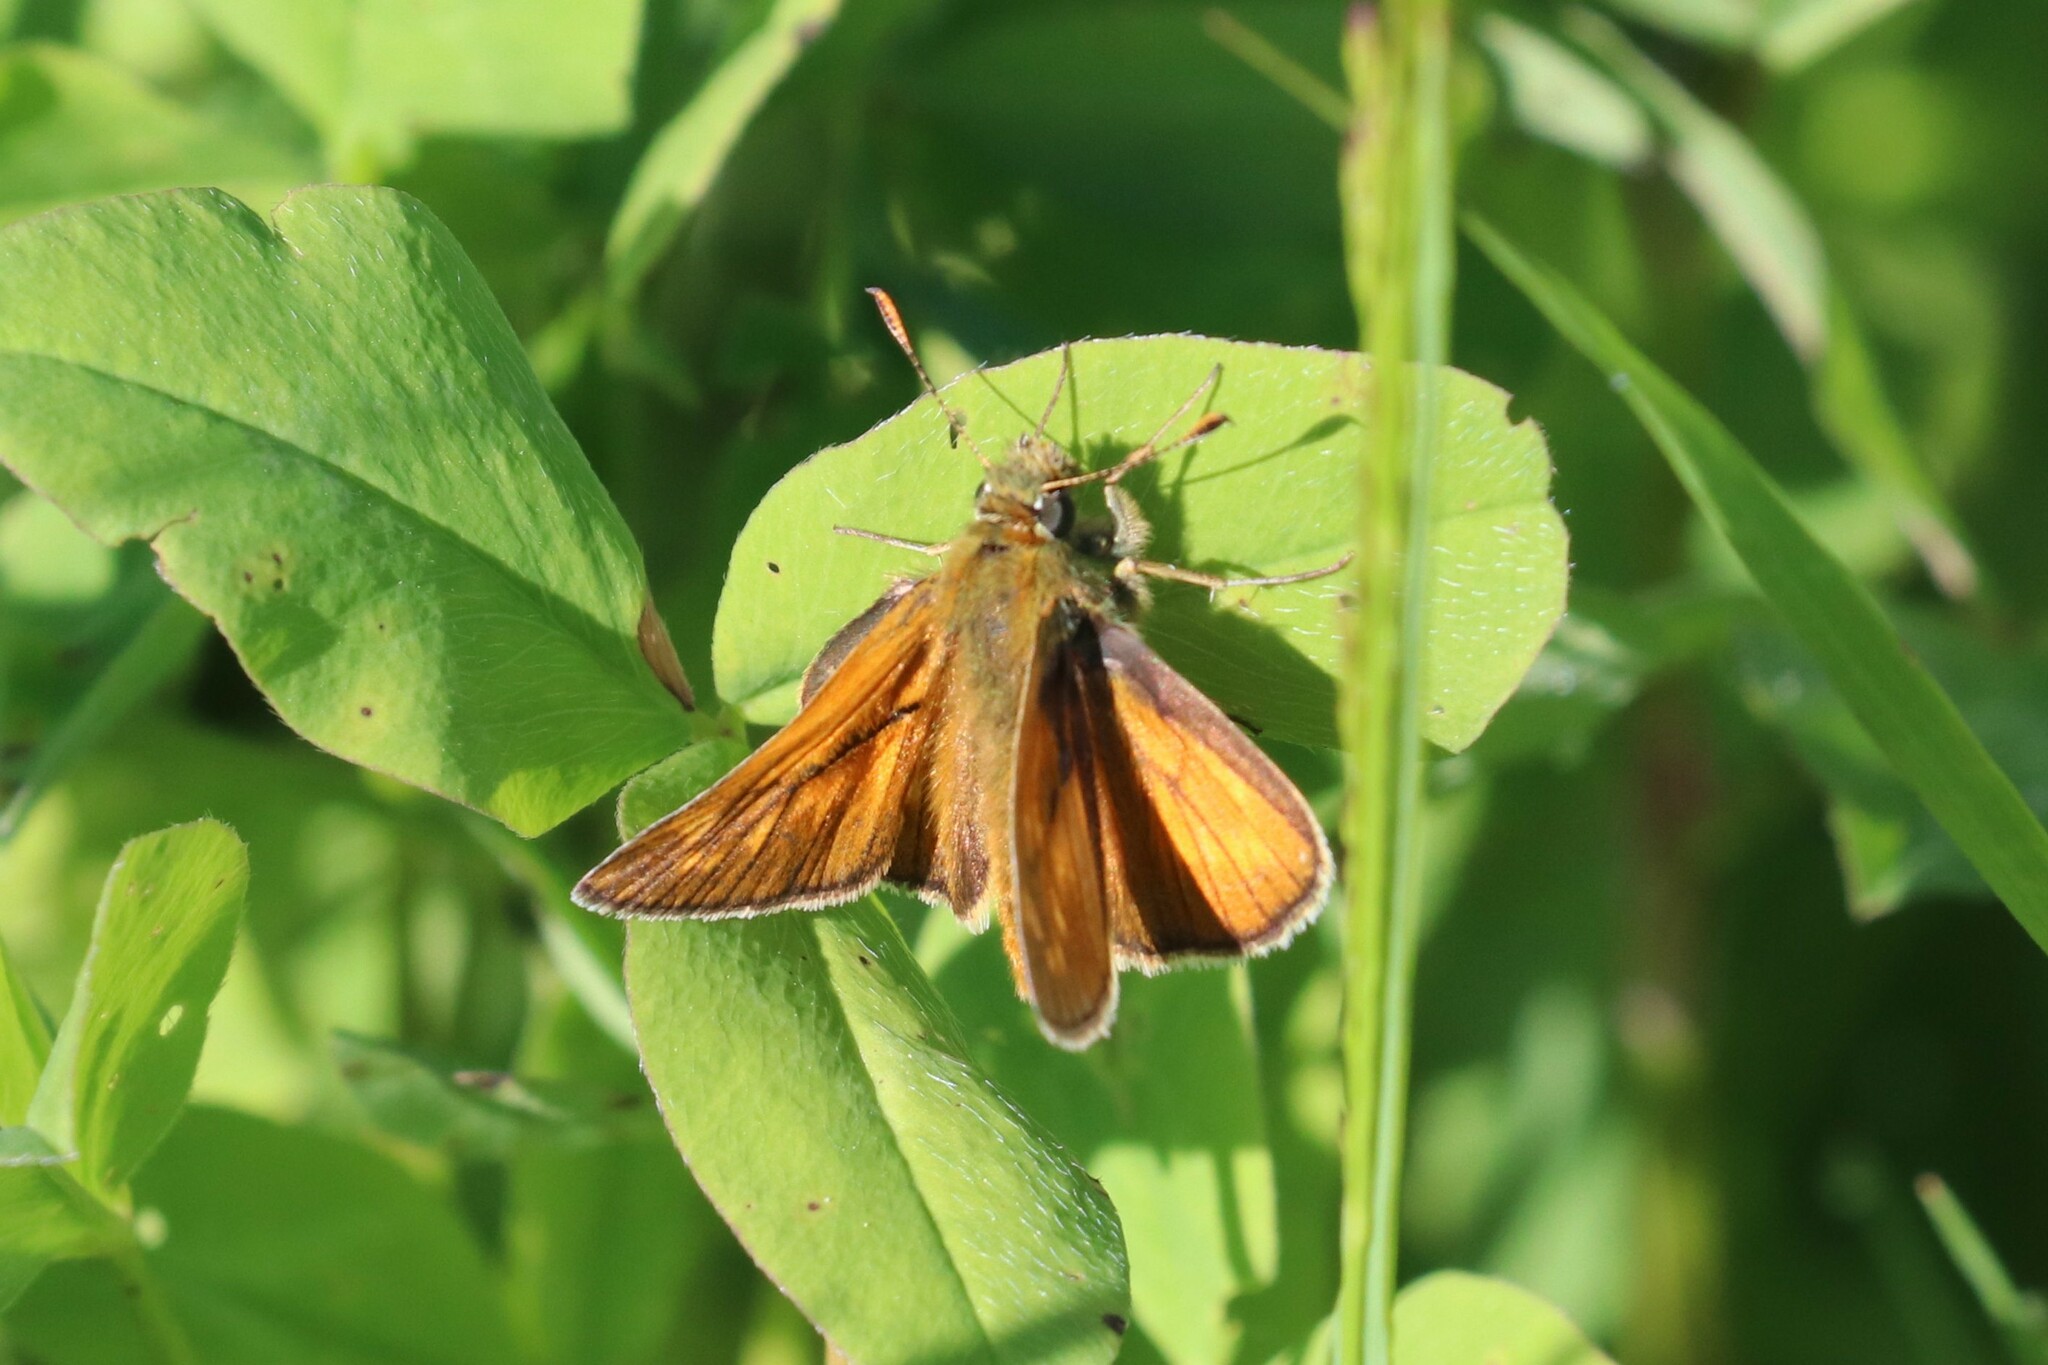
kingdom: Animalia
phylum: Arthropoda
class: Insecta
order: Lepidoptera
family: Hesperiidae
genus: Ochlodes
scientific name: Ochlodes venata
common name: Large skipper
